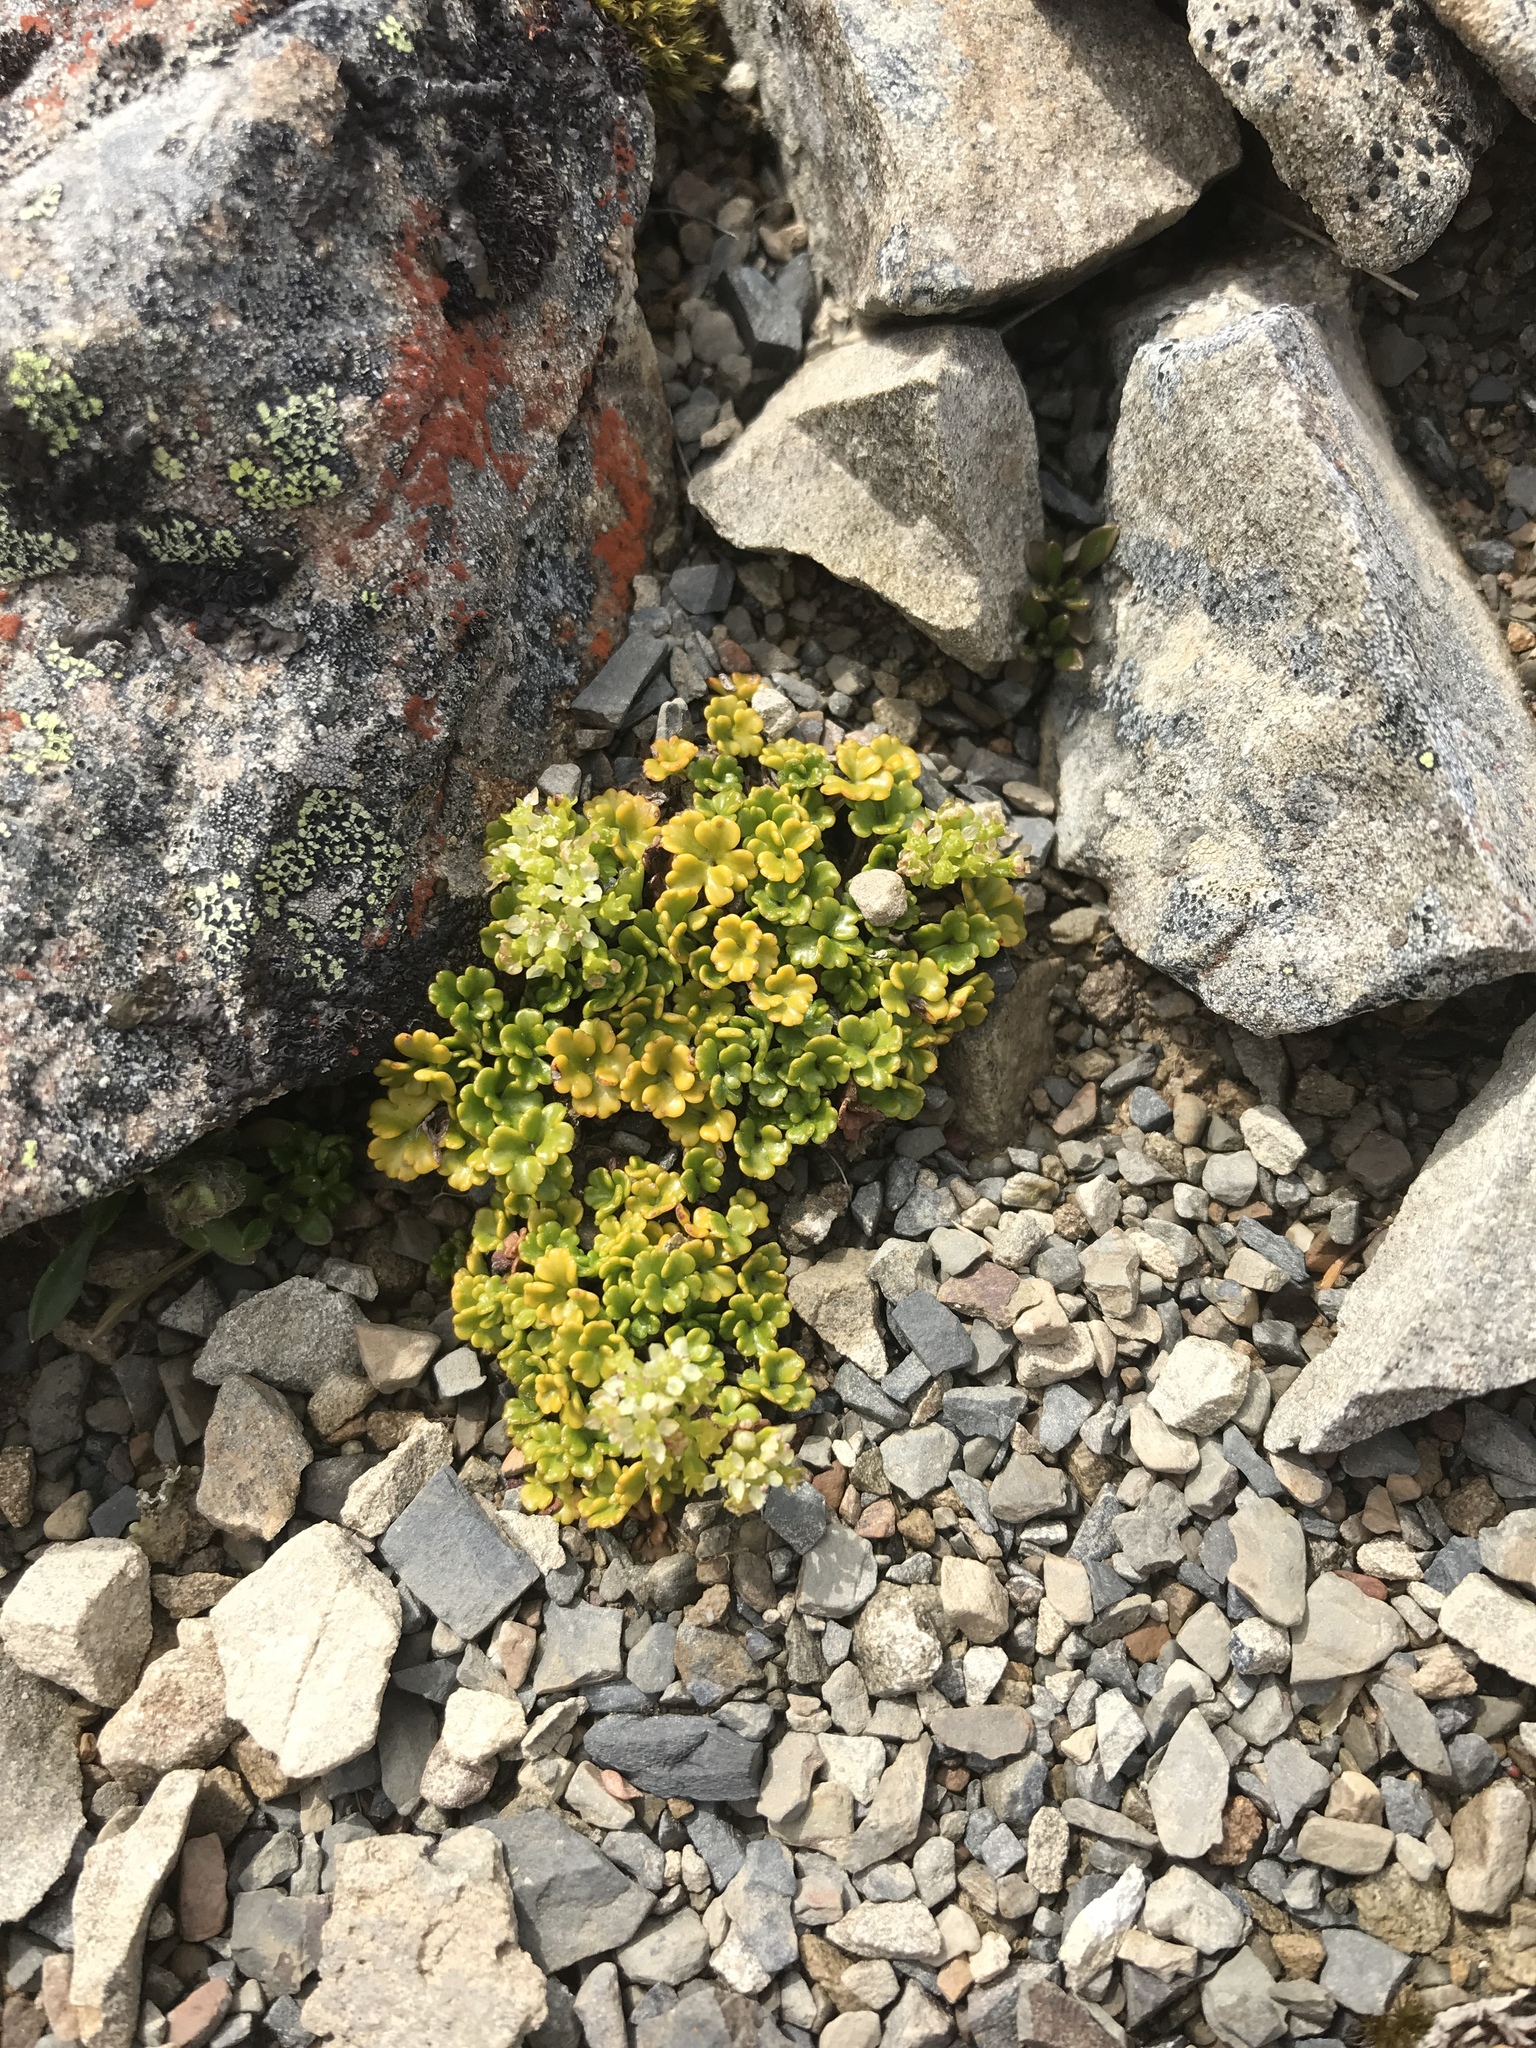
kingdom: Plantae
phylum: Tracheophyta
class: Magnoliopsida
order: Apiales
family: Apiaceae
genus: Azorella
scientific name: Azorella hydrocotyloides
